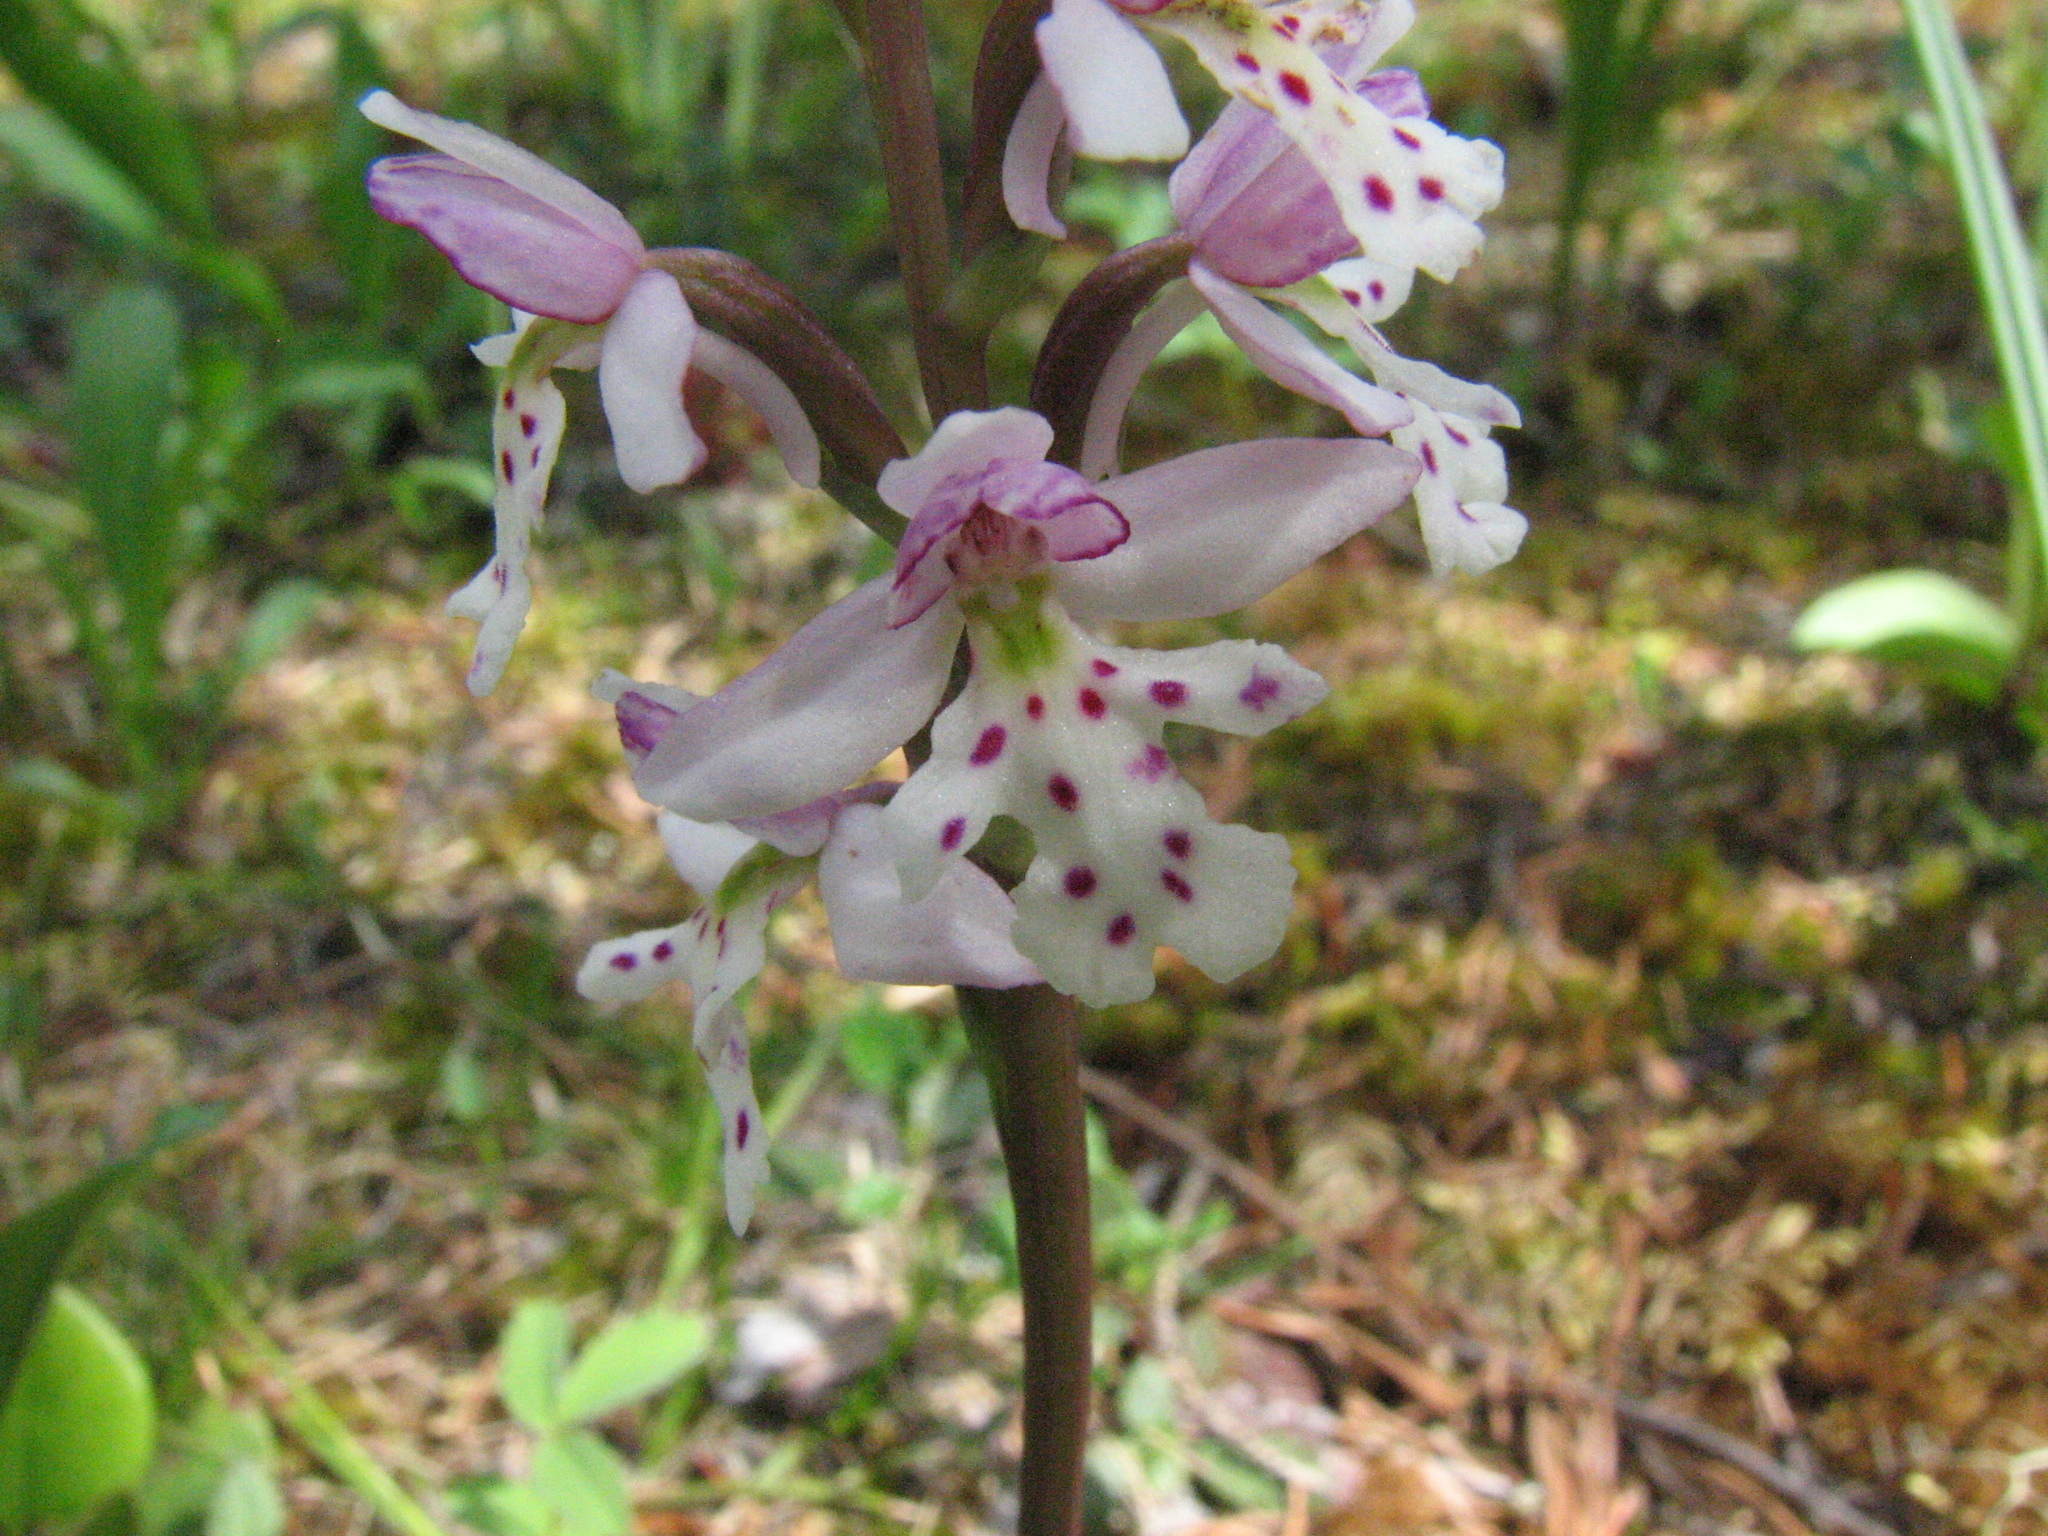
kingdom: Plantae
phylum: Tracheophyta
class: Liliopsida
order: Asparagales
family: Orchidaceae
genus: Galearis
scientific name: Galearis rotundifolia
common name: One-leaved orchis
